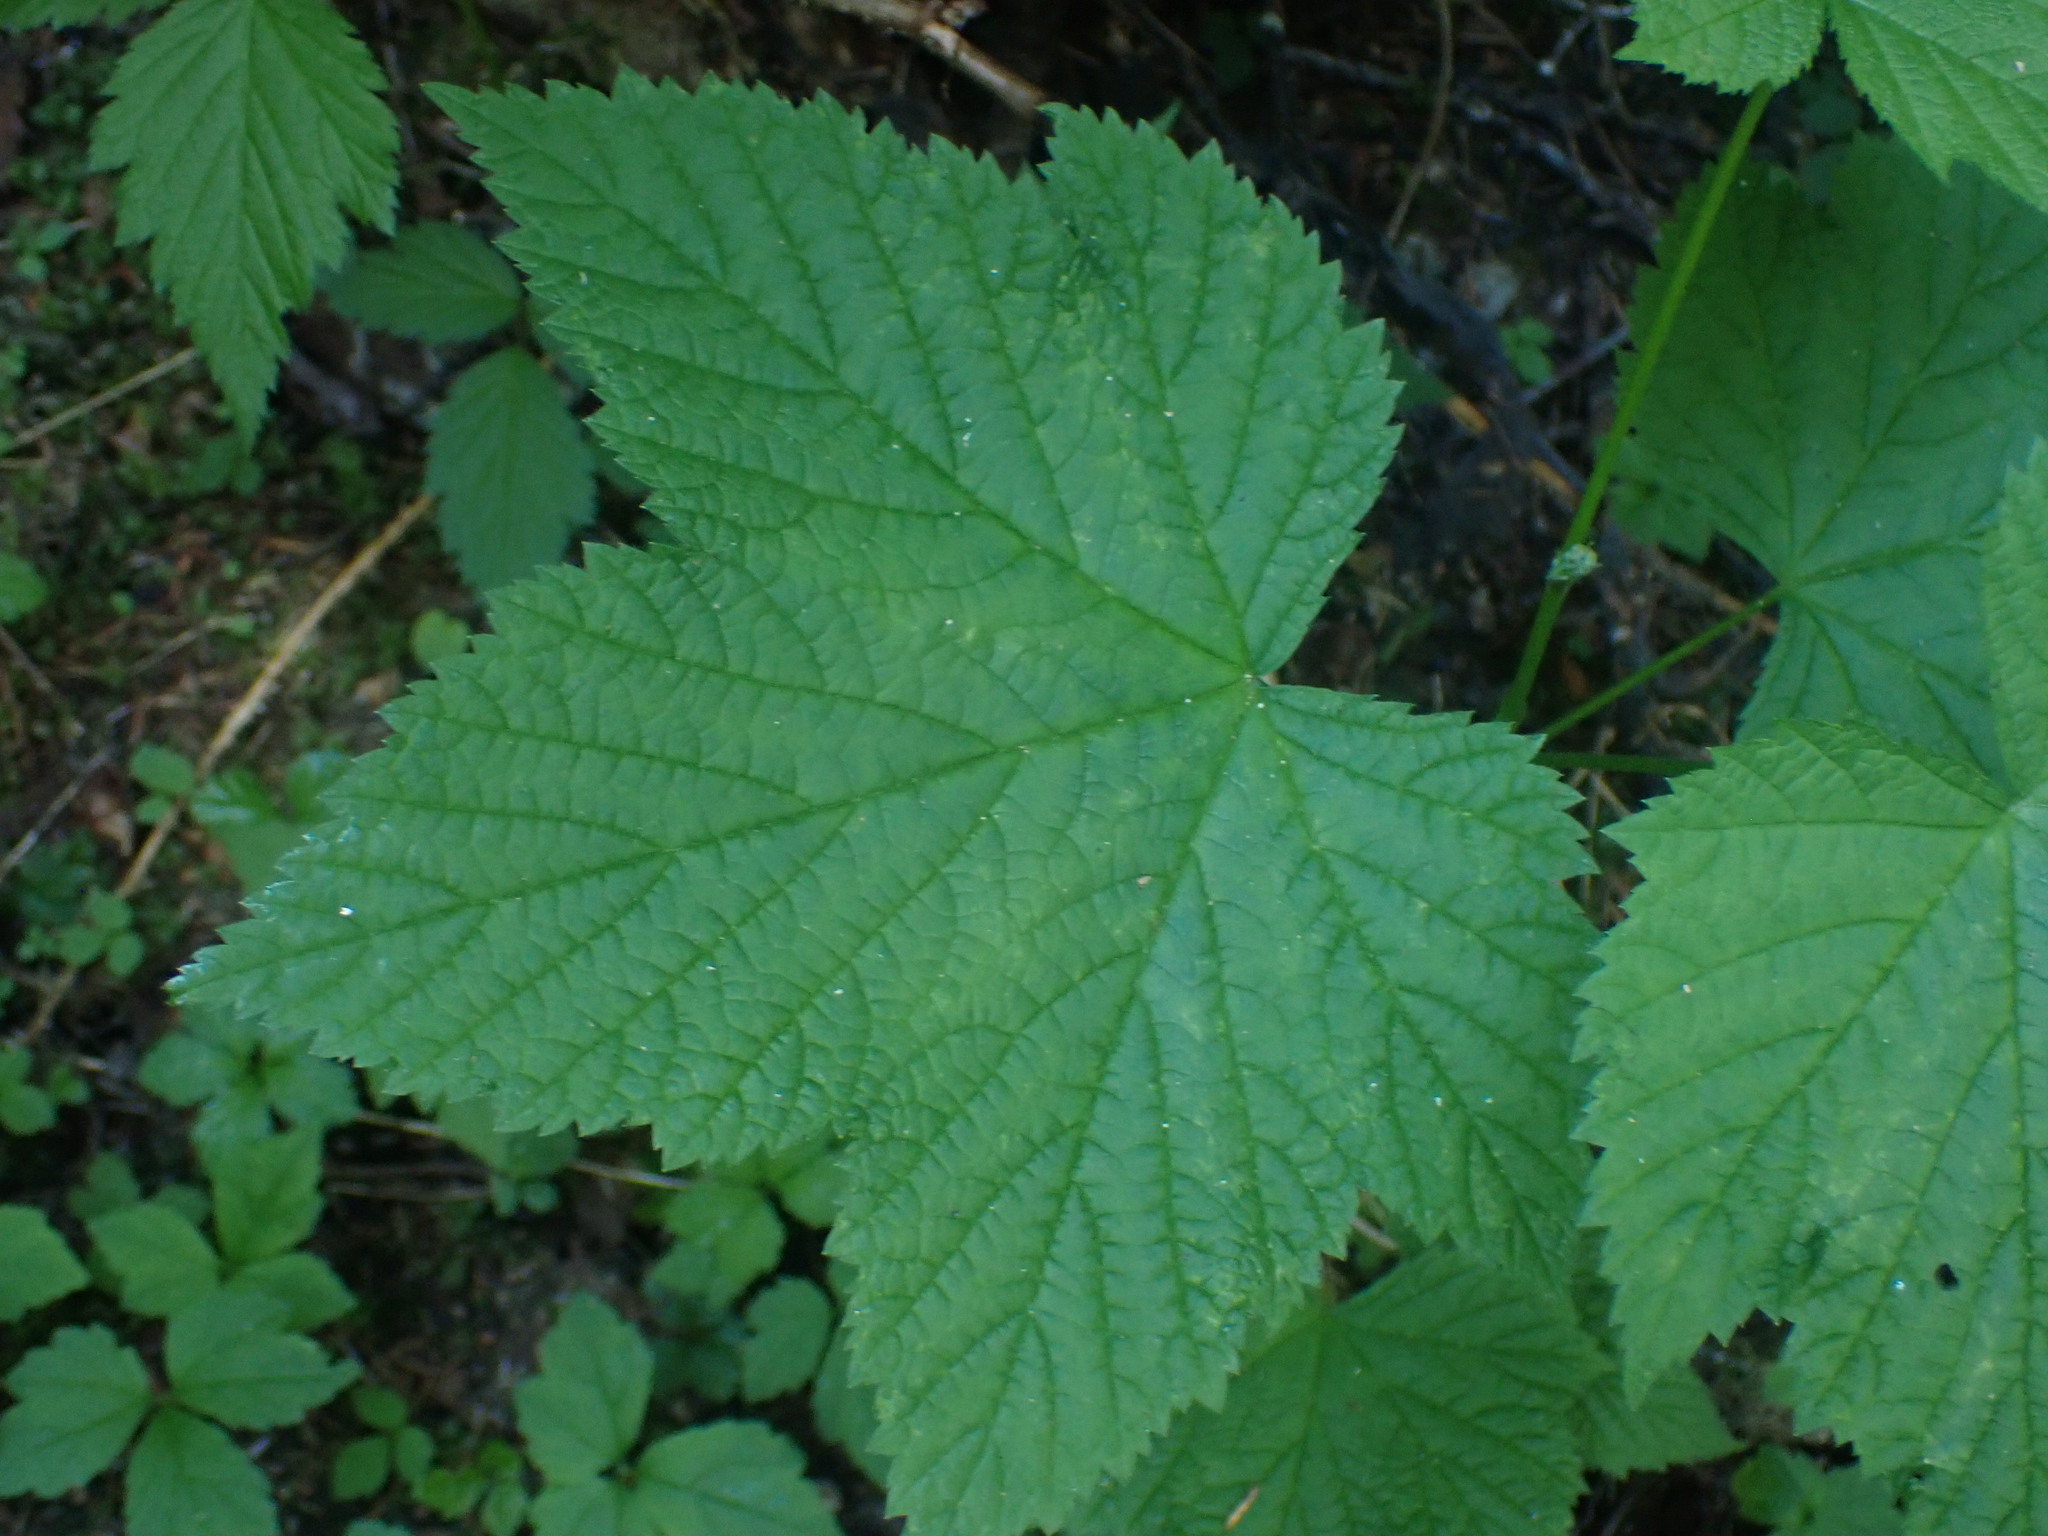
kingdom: Plantae
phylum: Tracheophyta
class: Magnoliopsida
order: Rosales
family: Rosaceae
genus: Rubus
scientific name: Rubus parviflorus
